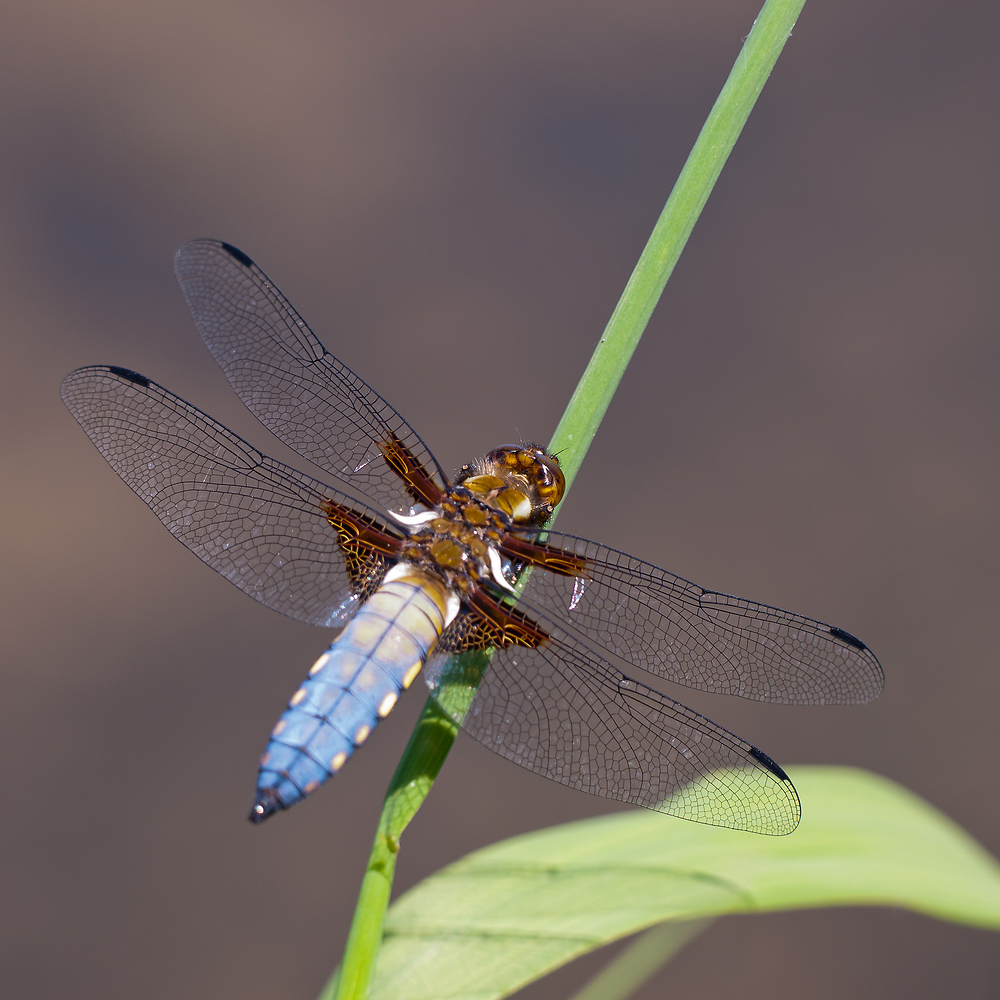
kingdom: Animalia
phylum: Arthropoda
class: Insecta
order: Odonata
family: Libellulidae
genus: Libellula
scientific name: Libellula depressa
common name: Broad-bodied chaser
